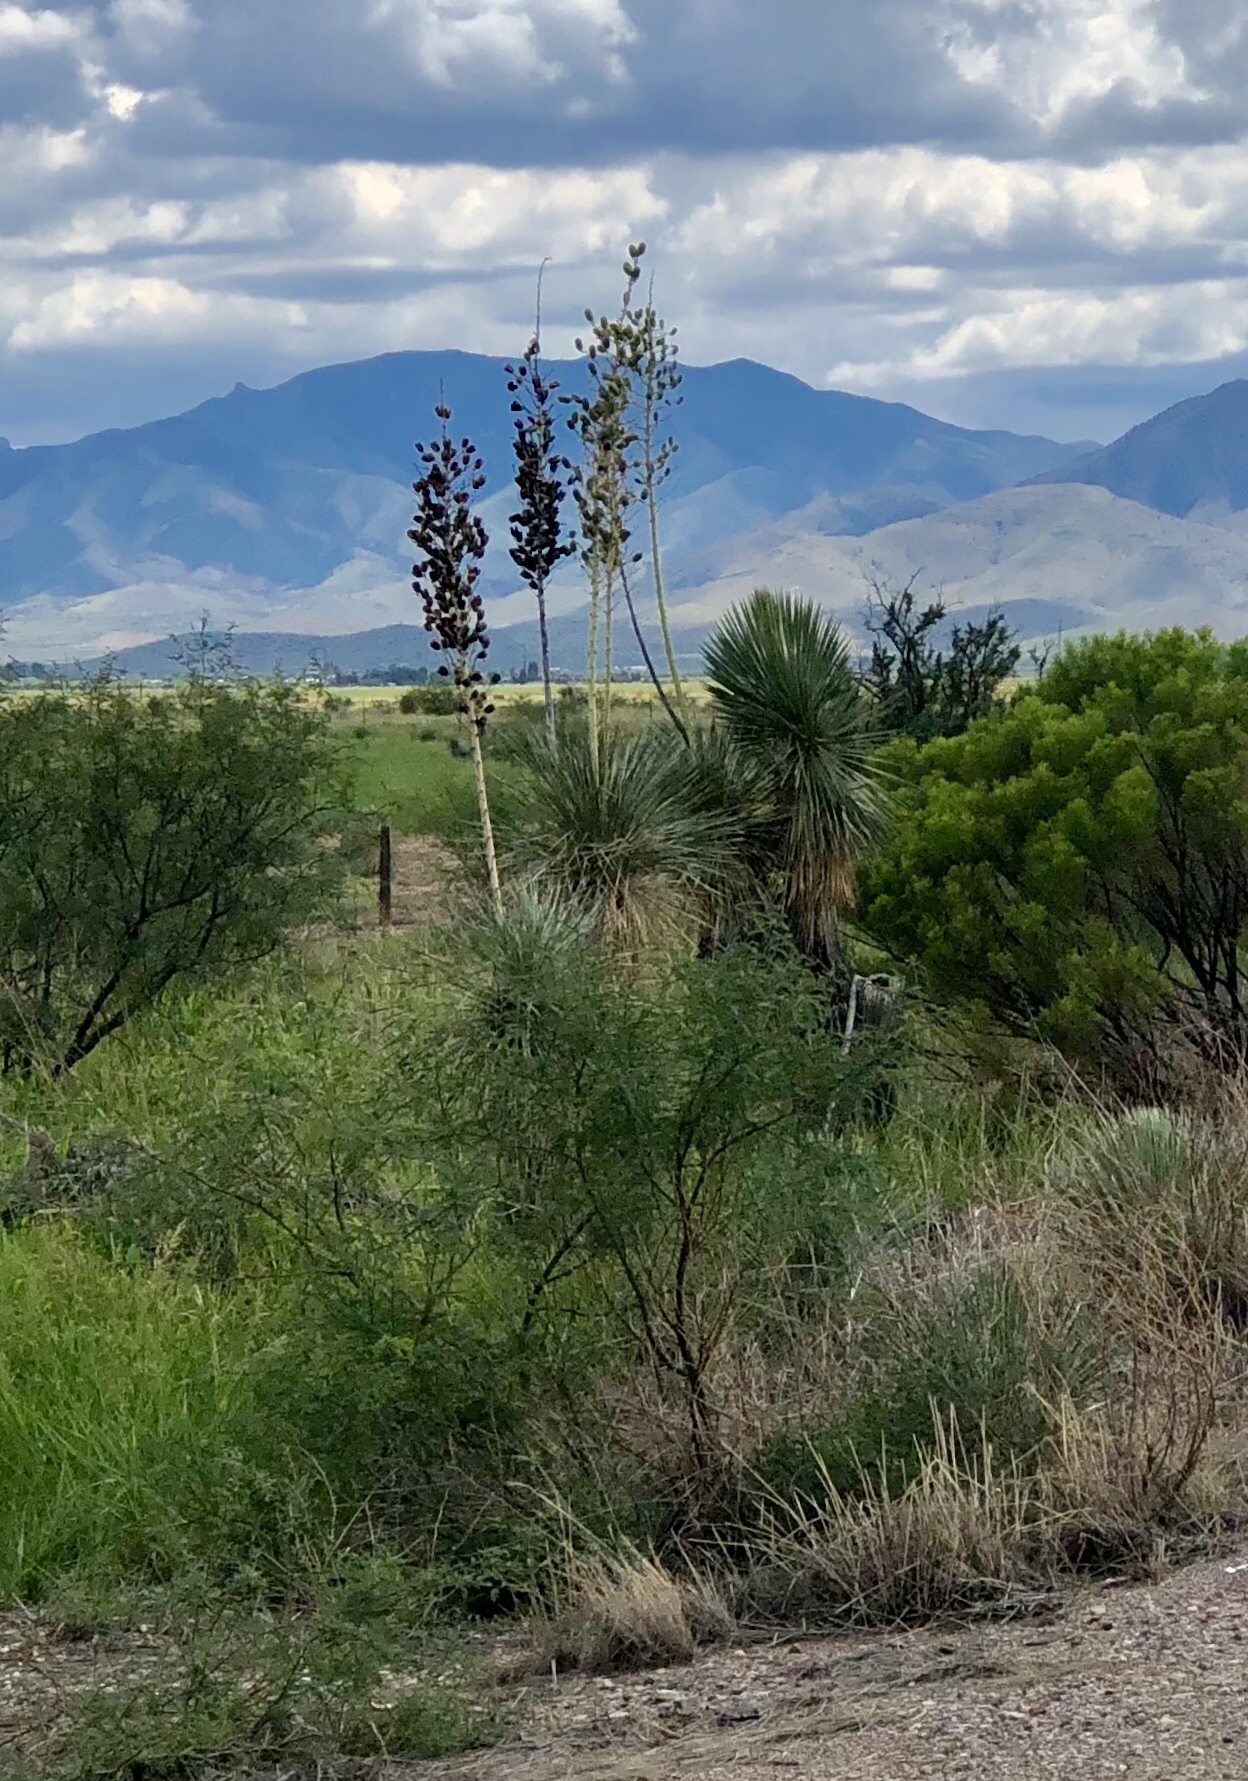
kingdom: Plantae
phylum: Tracheophyta
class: Liliopsida
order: Asparagales
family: Asparagaceae
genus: Yucca
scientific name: Yucca elata
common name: Palmella
